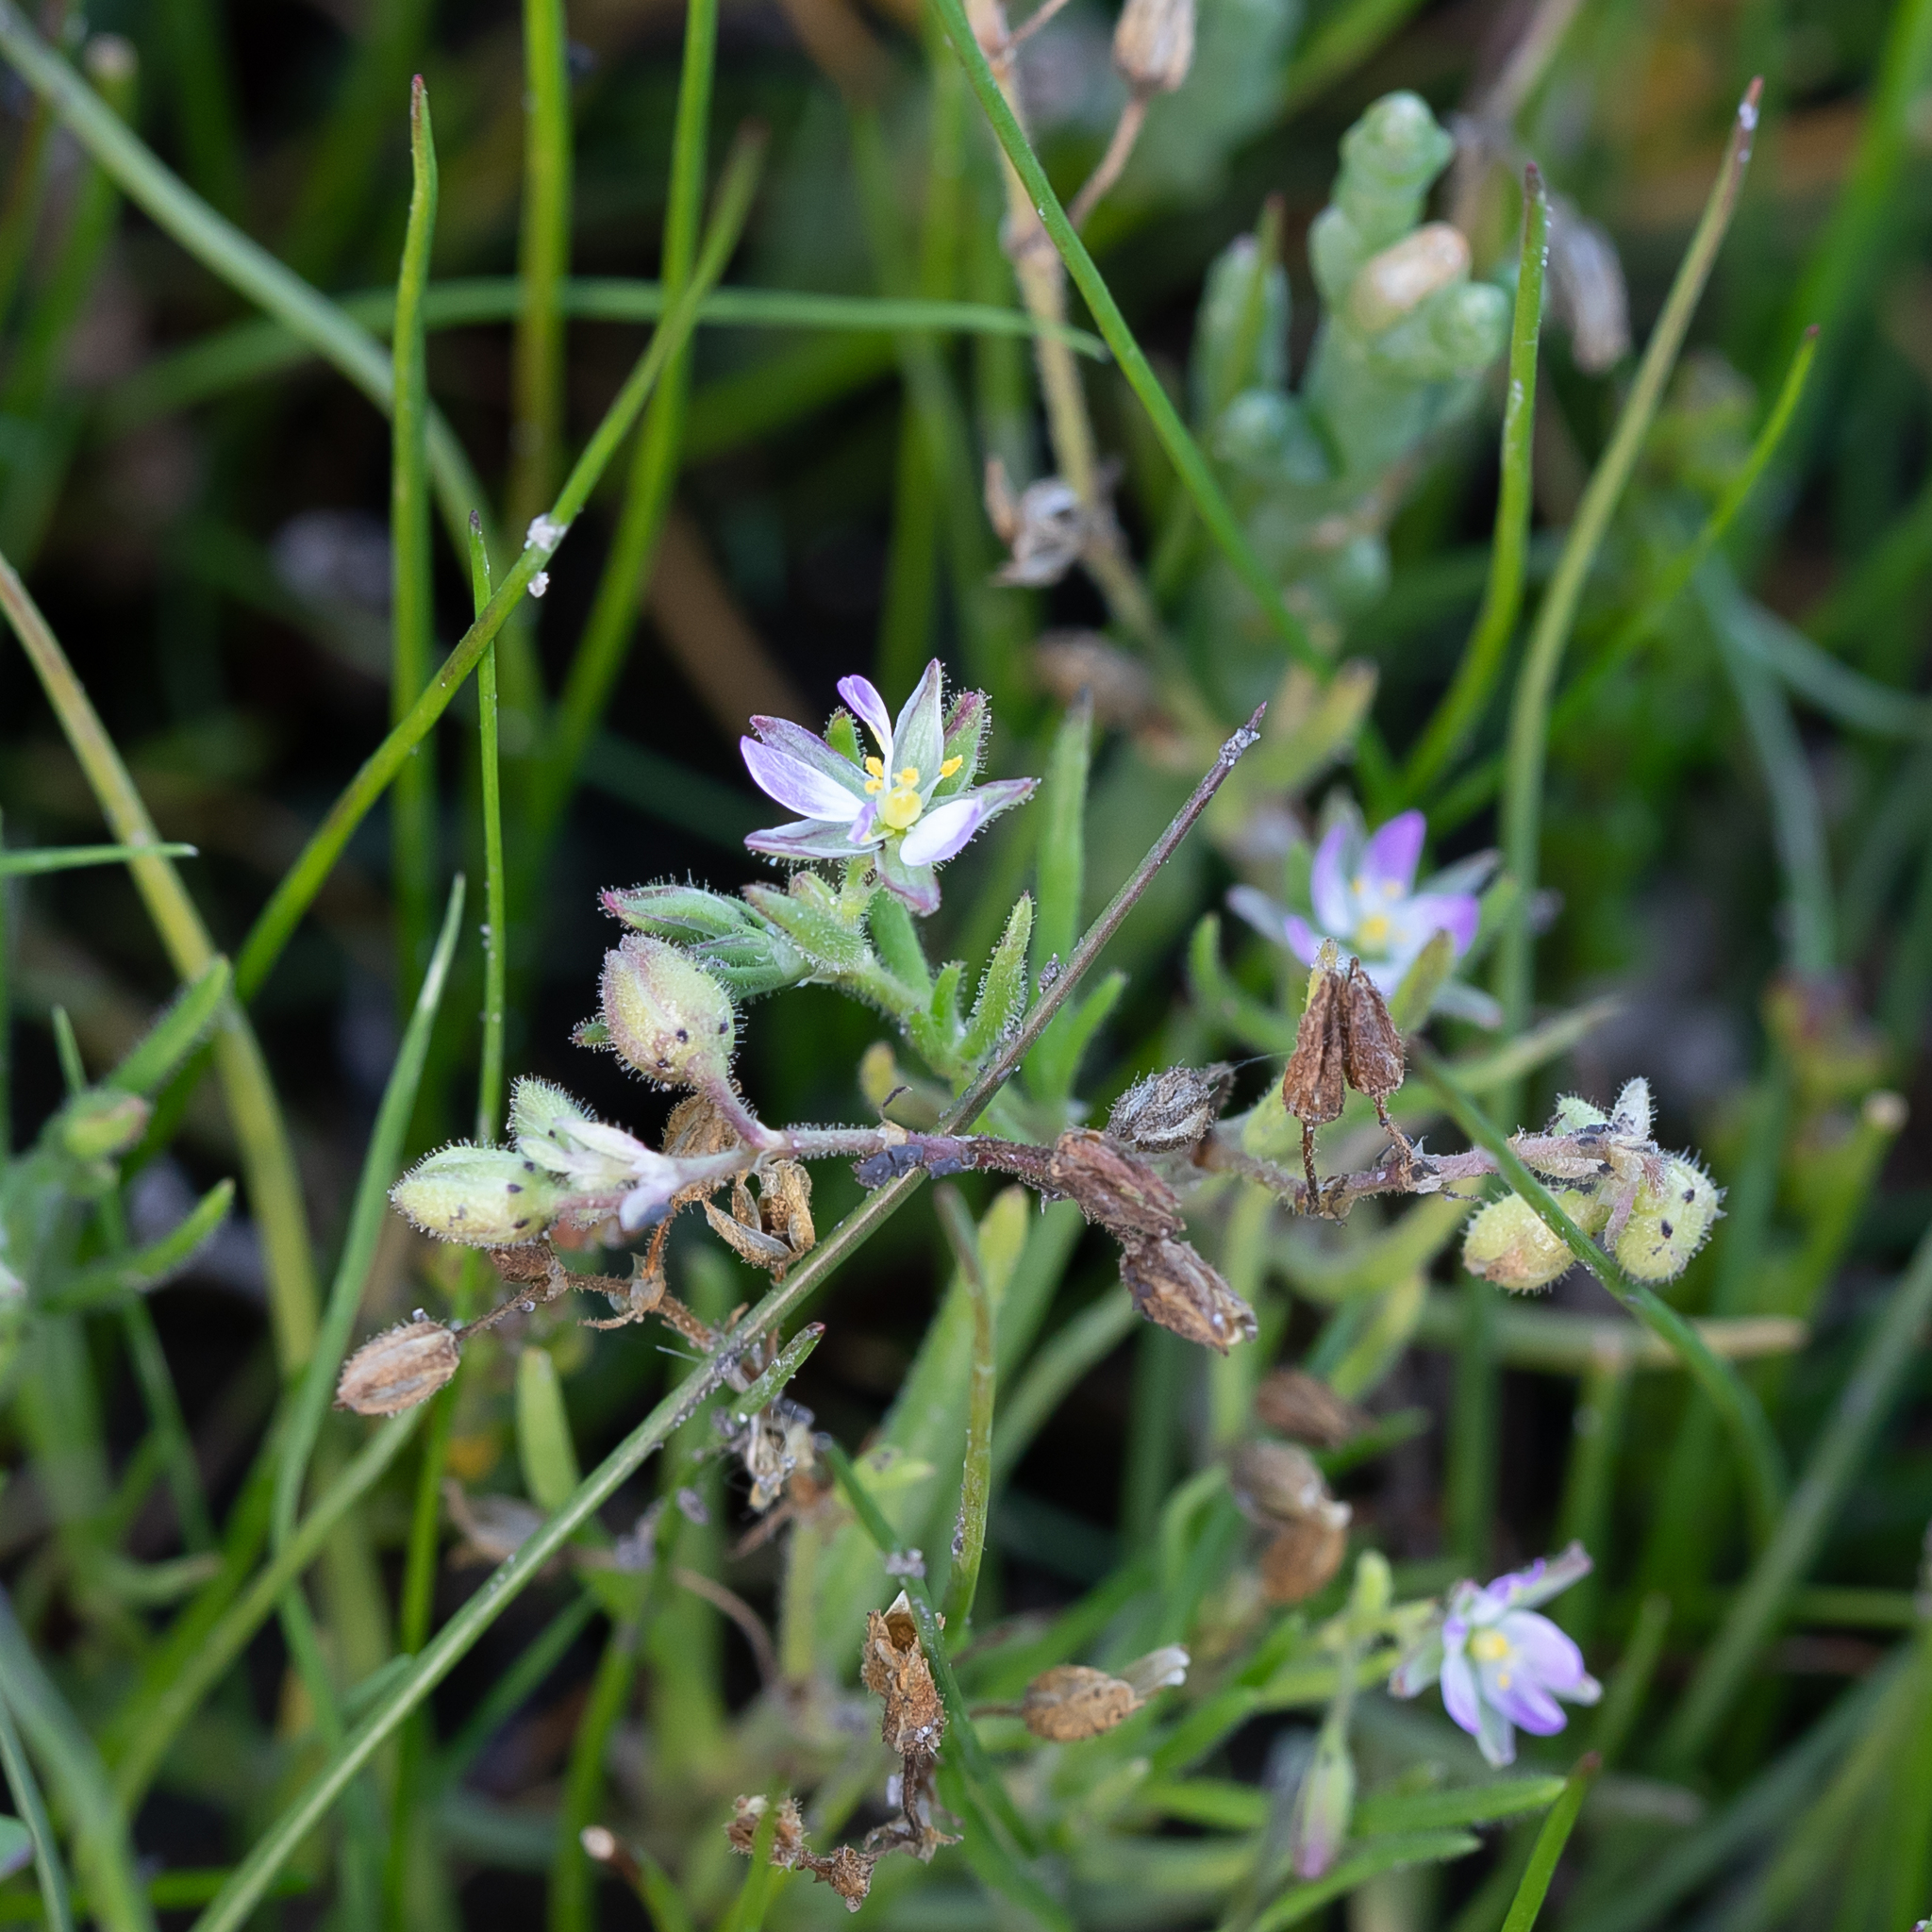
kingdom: Plantae
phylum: Tracheophyta
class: Magnoliopsida
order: Caryophyllales
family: Caryophyllaceae
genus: Spergularia
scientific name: Spergularia marina
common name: Lesser sea-spurrey
